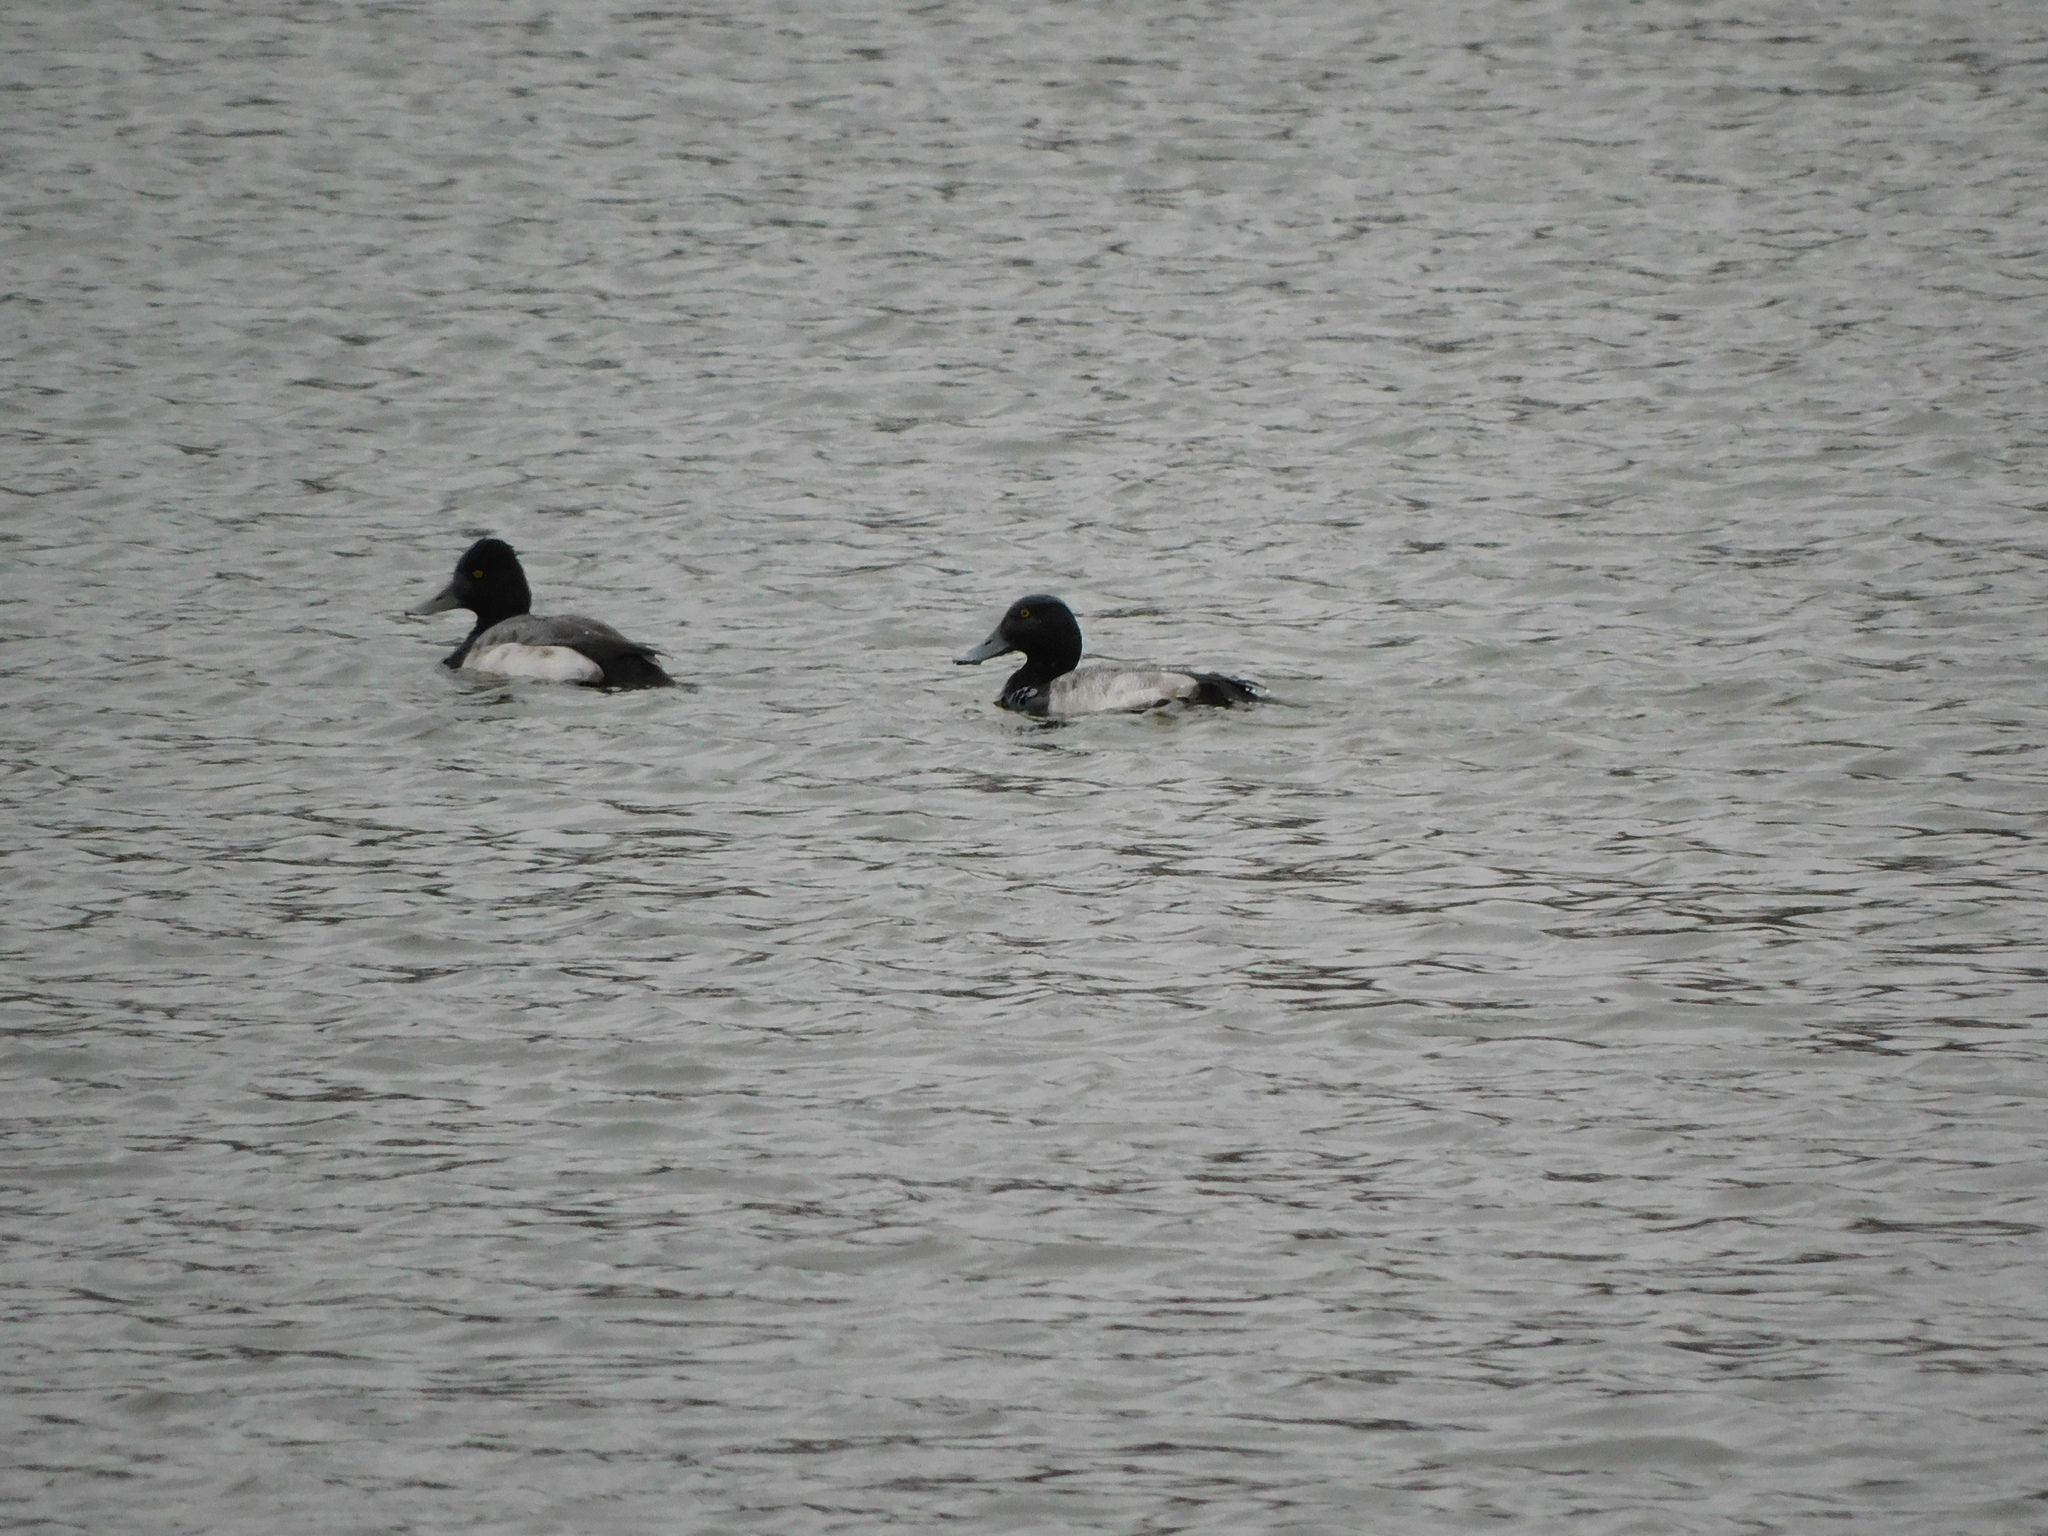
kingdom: Animalia
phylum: Chordata
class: Aves
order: Anseriformes
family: Anatidae
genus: Aythya
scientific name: Aythya affinis
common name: Lesser scaup
